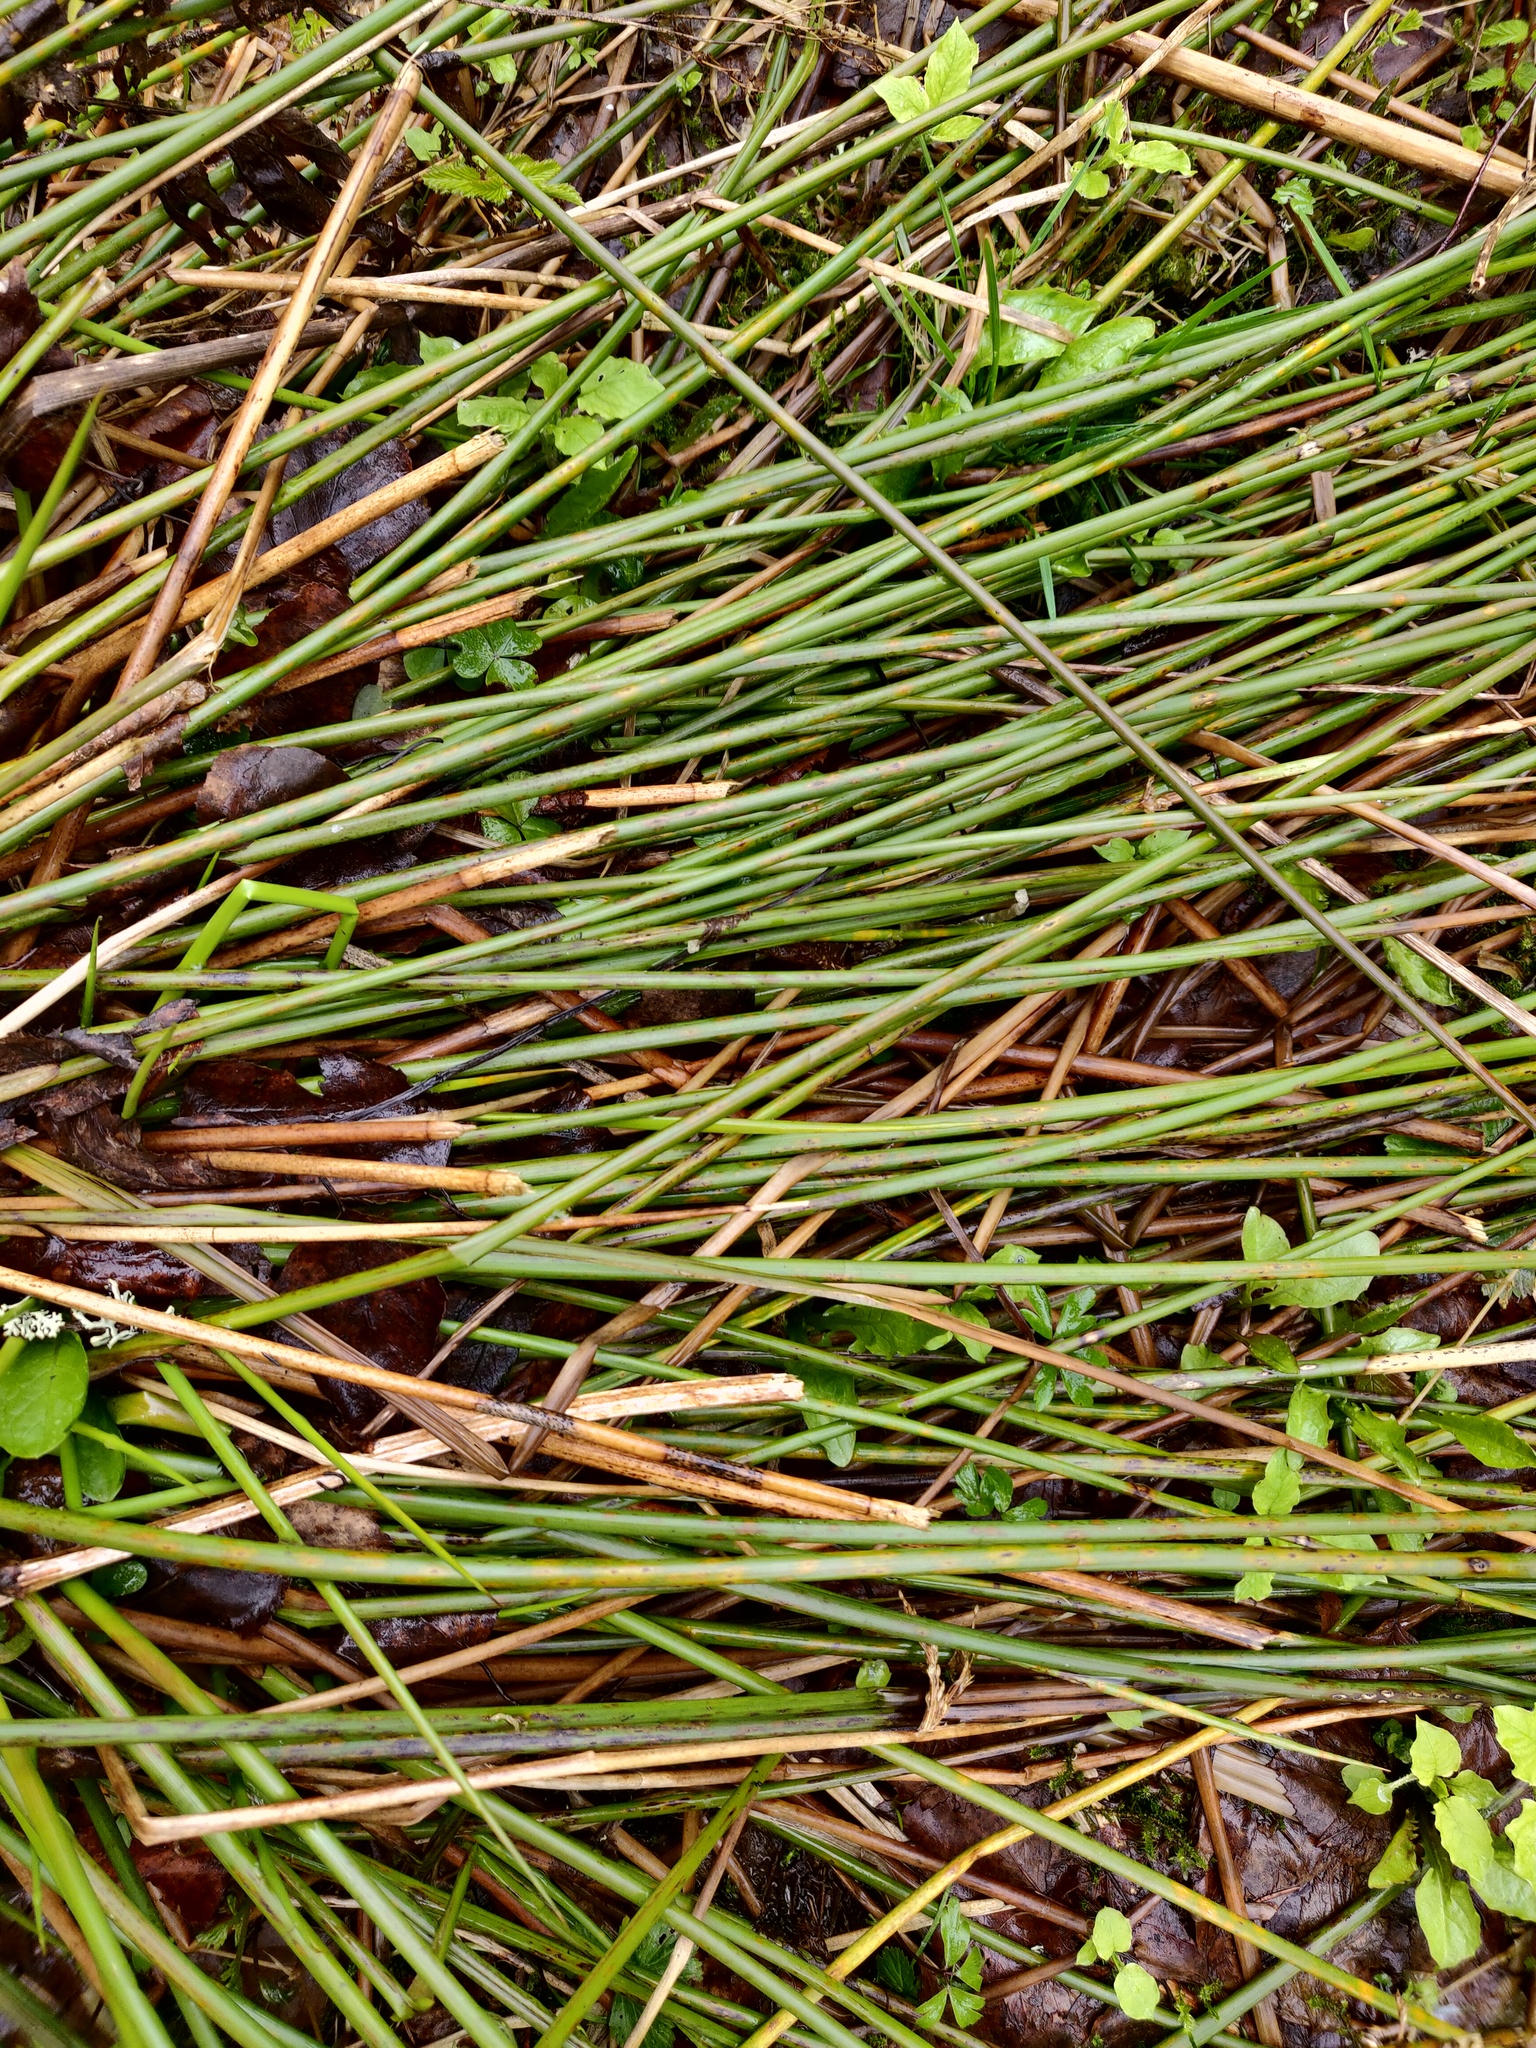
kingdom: Plantae
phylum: Tracheophyta
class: Liliopsida
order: Poales
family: Juncaceae
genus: Juncus
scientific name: Juncus effusus
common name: Soft rush
